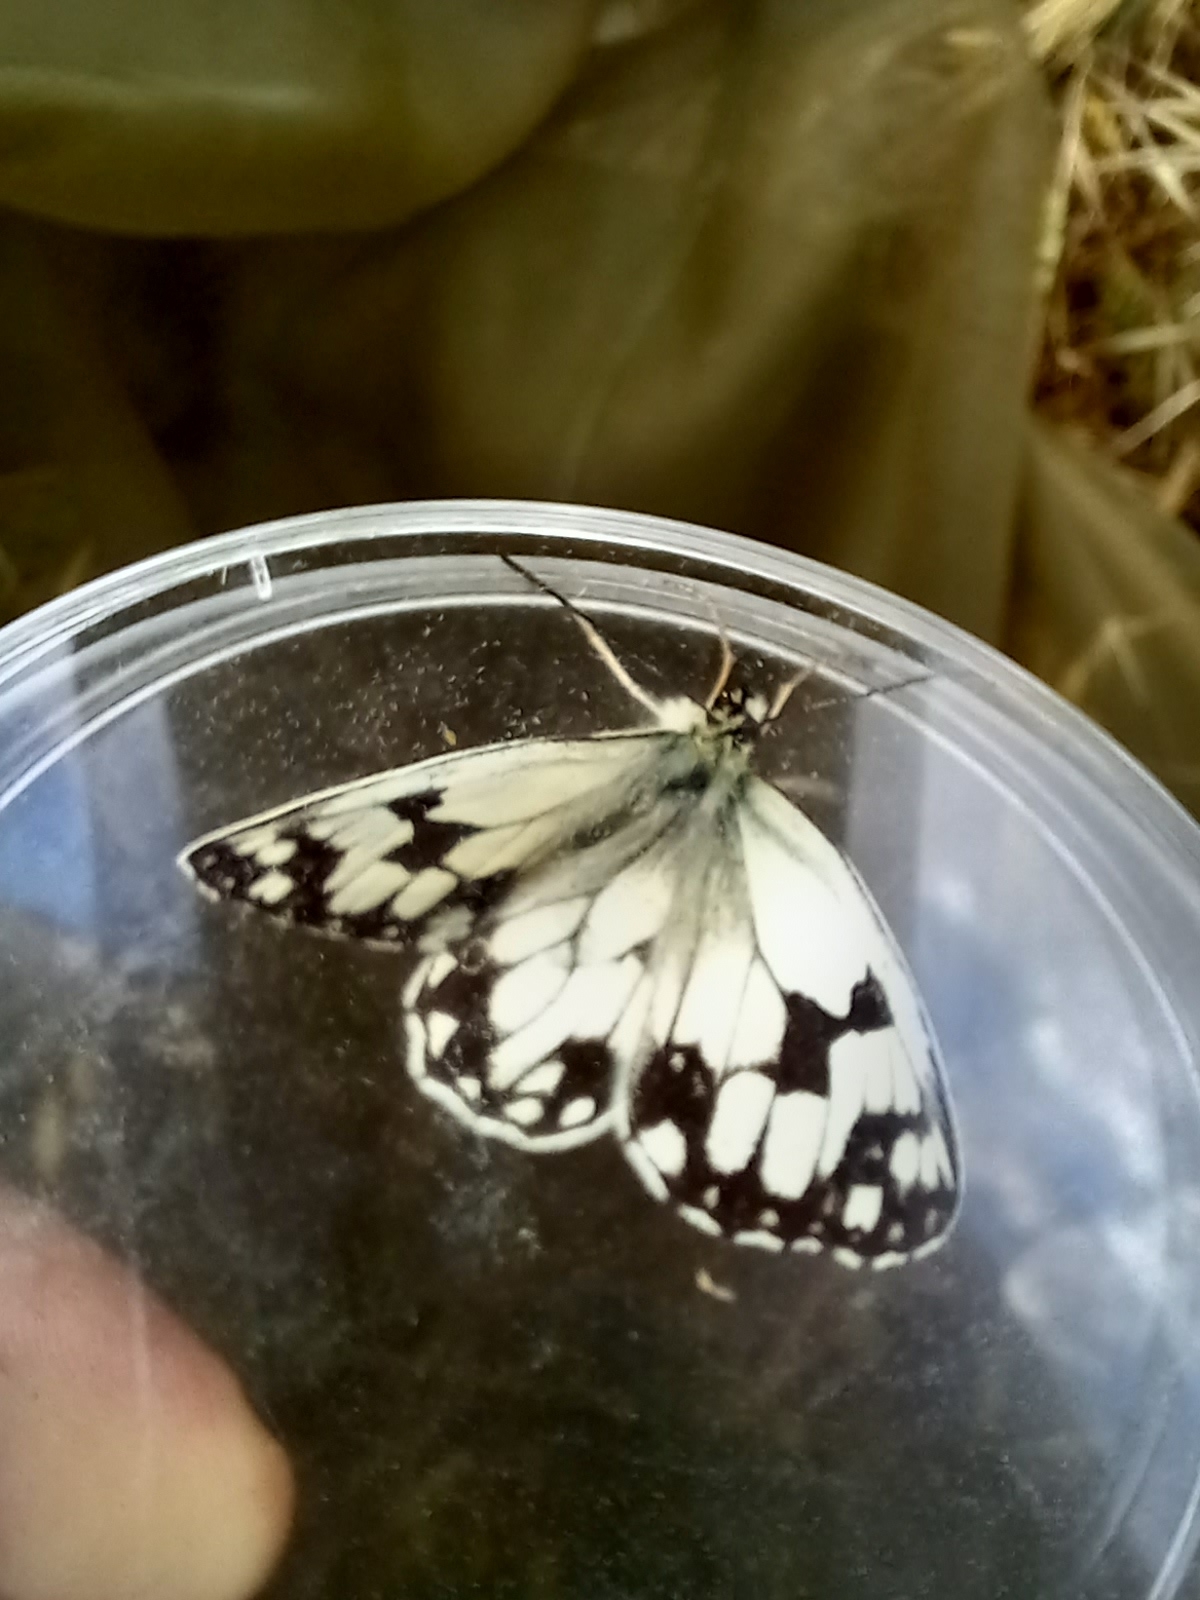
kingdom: Animalia
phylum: Arthropoda
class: Insecta
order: Lepidoptera
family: Nymphalidae
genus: Melanargia
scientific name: Melanargia lachesis
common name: Iberian marbled white
